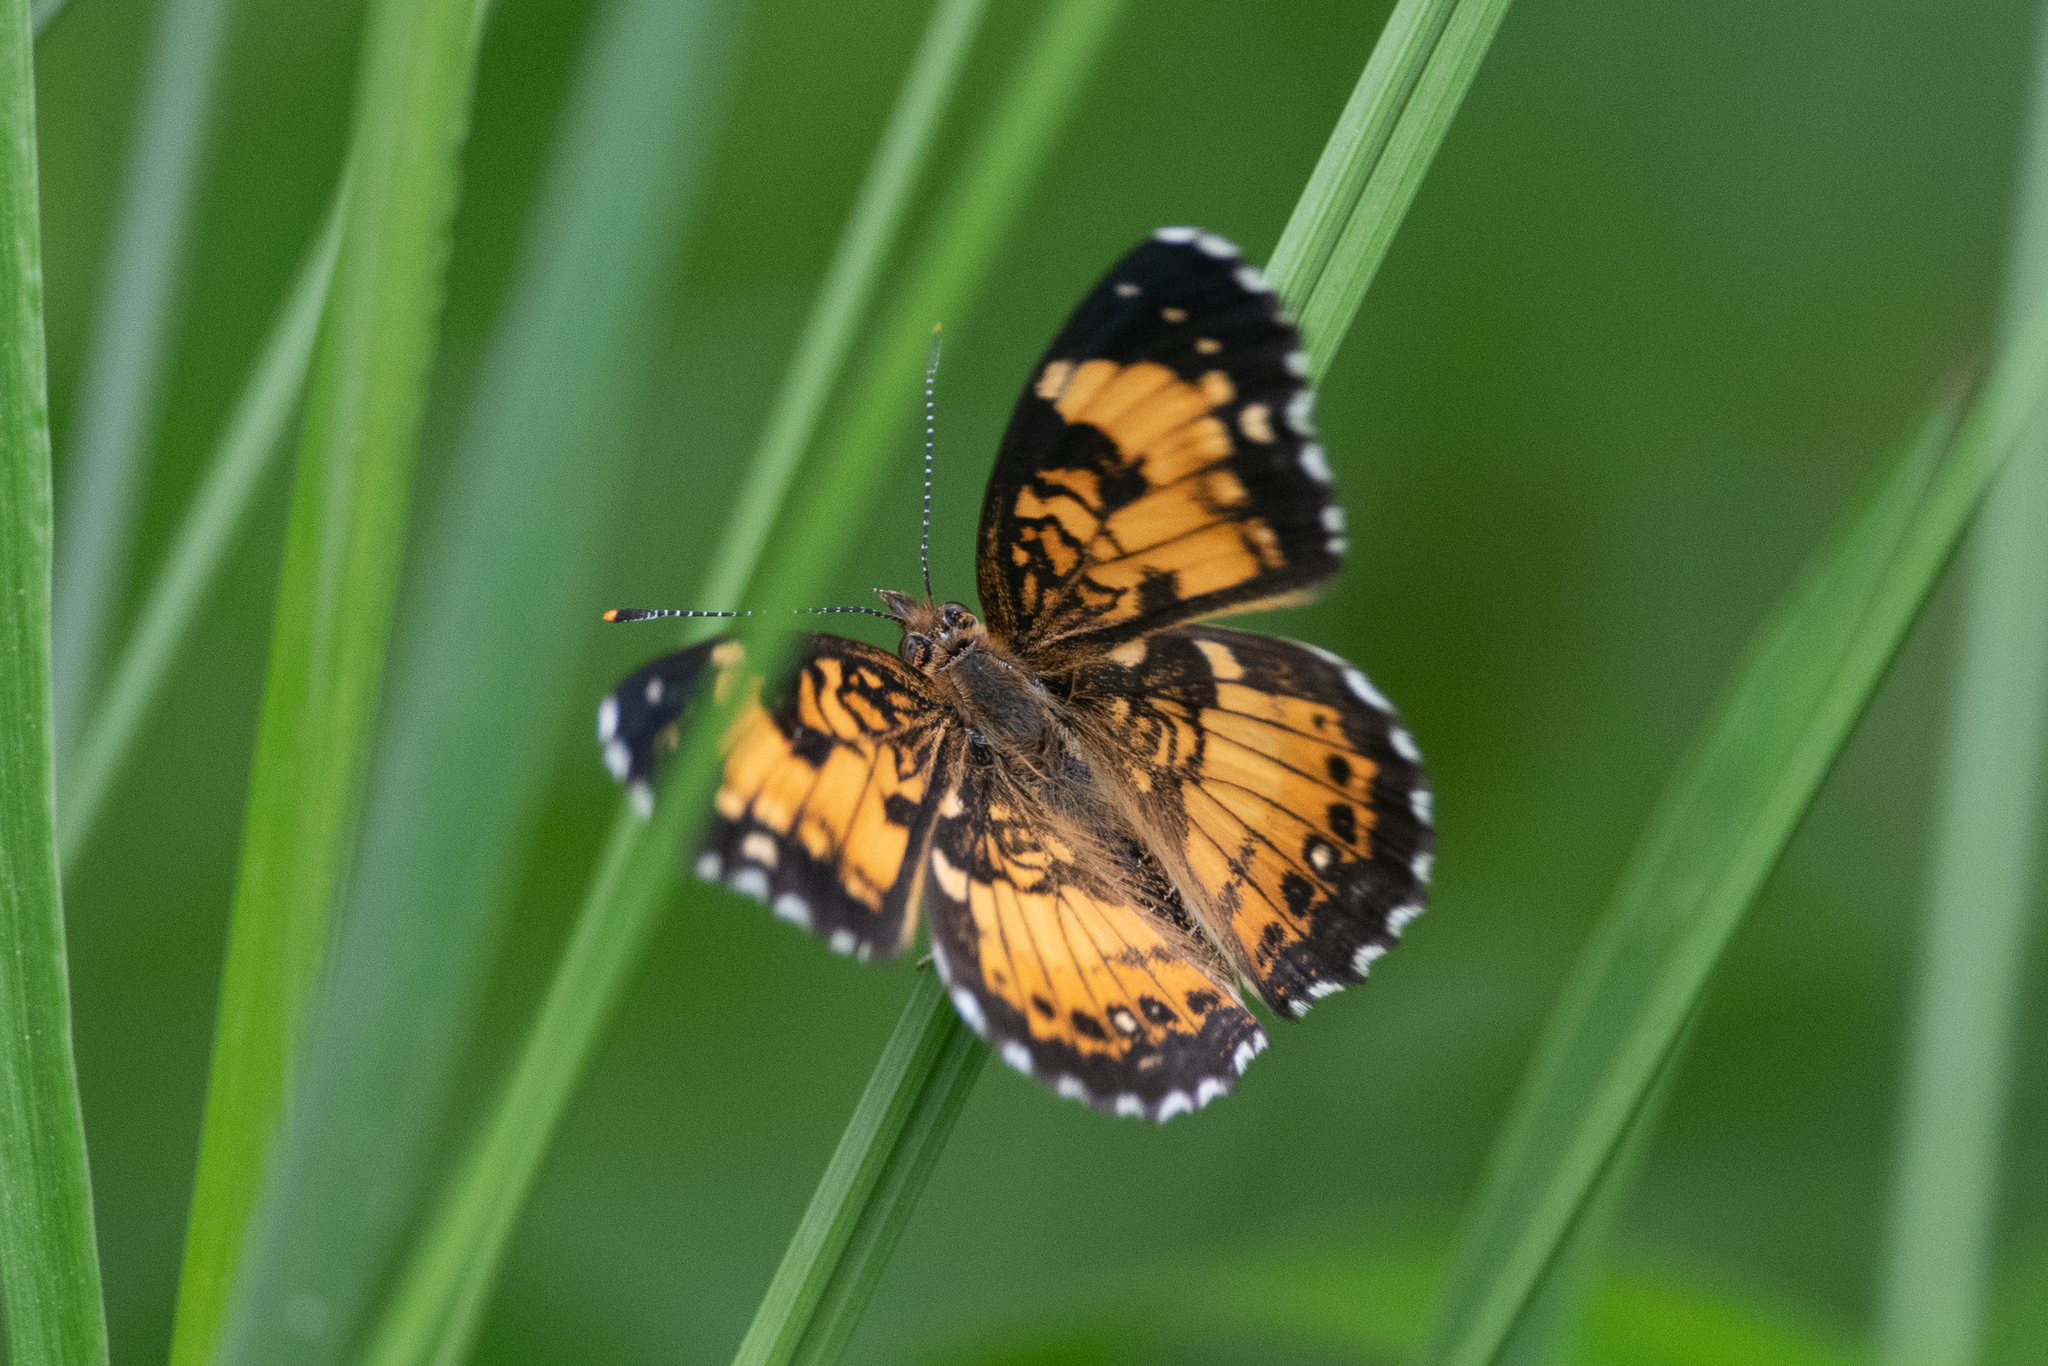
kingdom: Animalia
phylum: Arthropoda
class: Insecta
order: Lepidoptera
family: Nymphalidae
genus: Chlosyne
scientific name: Chlosyne nycteis
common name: Silvery checkerspot
